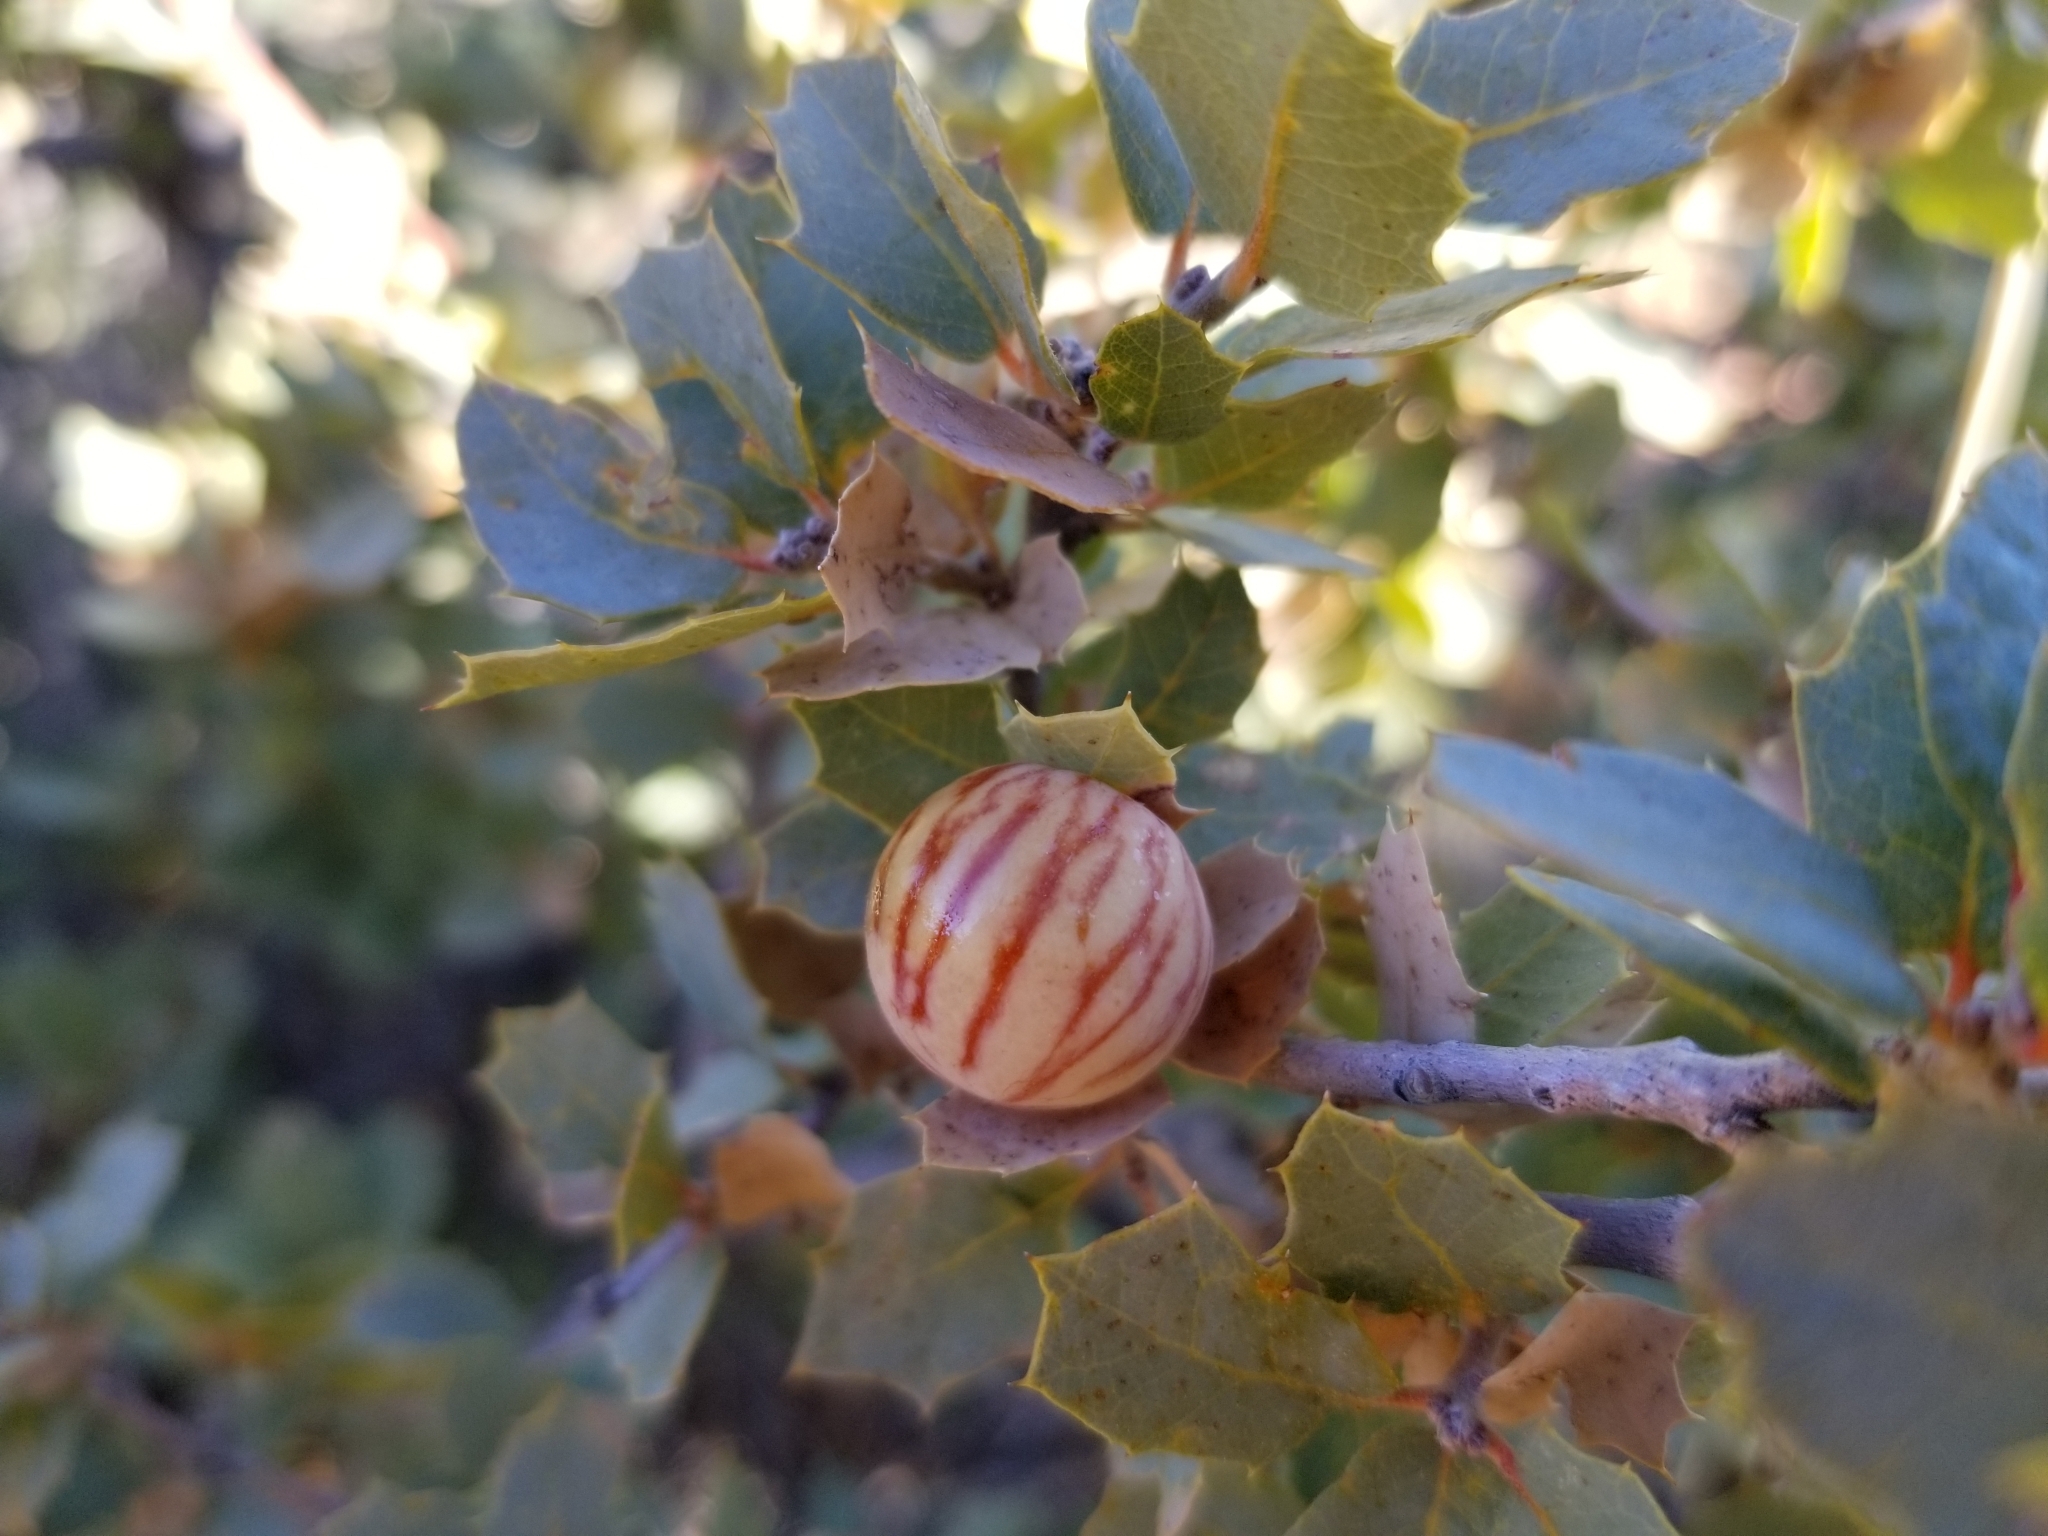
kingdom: Animalia
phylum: Arthropoda
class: Insecta
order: Hymenoptera
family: Cynipidae
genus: Atrusca
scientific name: Atrusca
